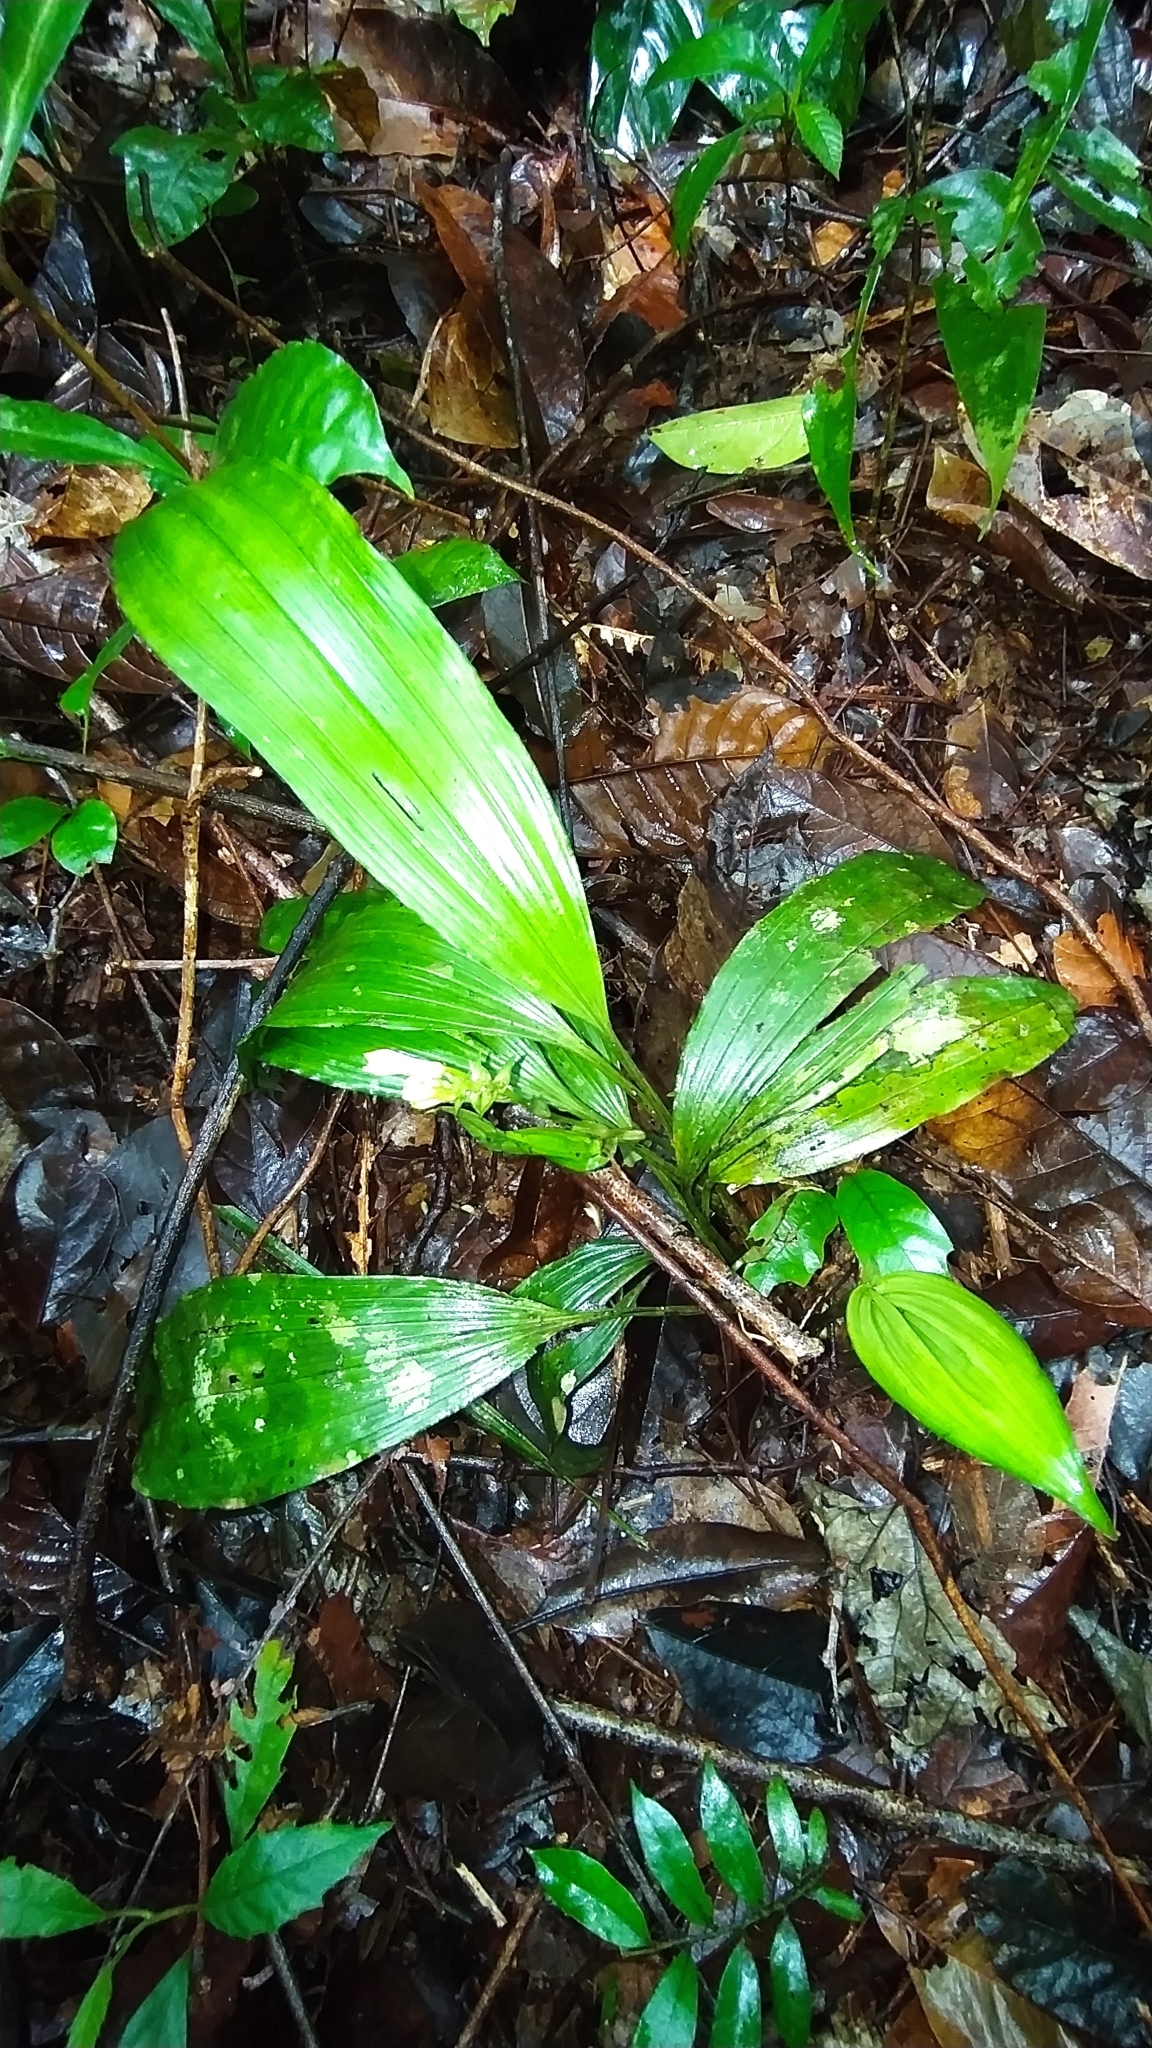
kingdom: Plantae
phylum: Tracheophyta
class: Liliopsida
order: Asparagales
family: Orchidaceae
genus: Palmorchis
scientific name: Palmorchis pabstii
